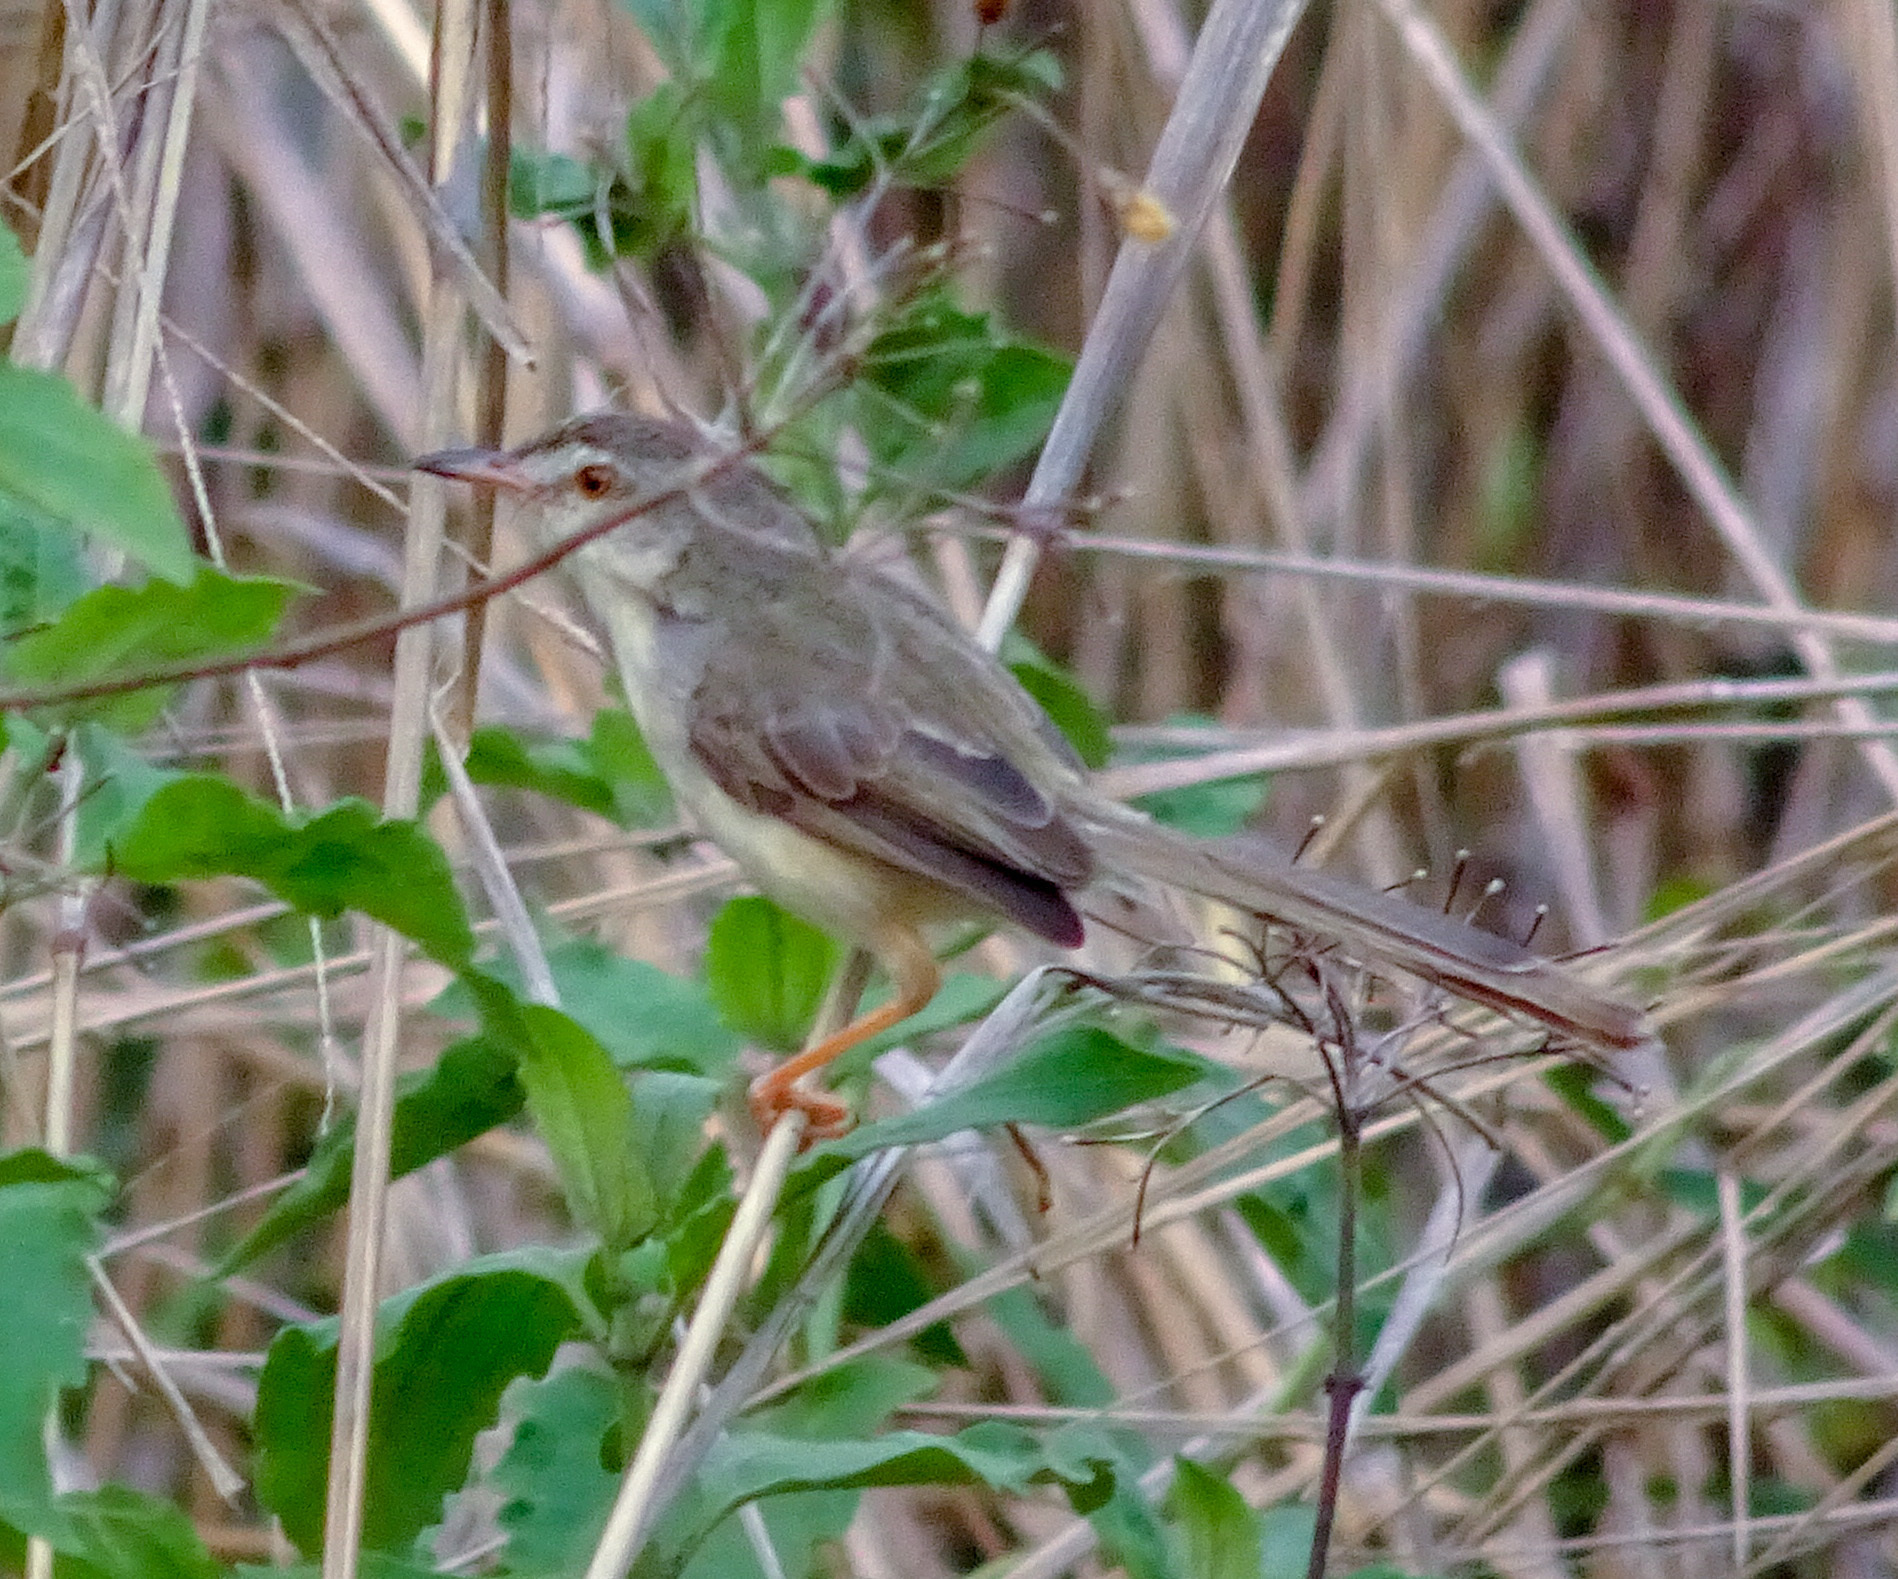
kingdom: Animalia
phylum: Chordata
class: Aves
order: Passeriformes
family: Cisticolidae
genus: Prinia
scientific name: Prinia inornata
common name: Plain prinia
